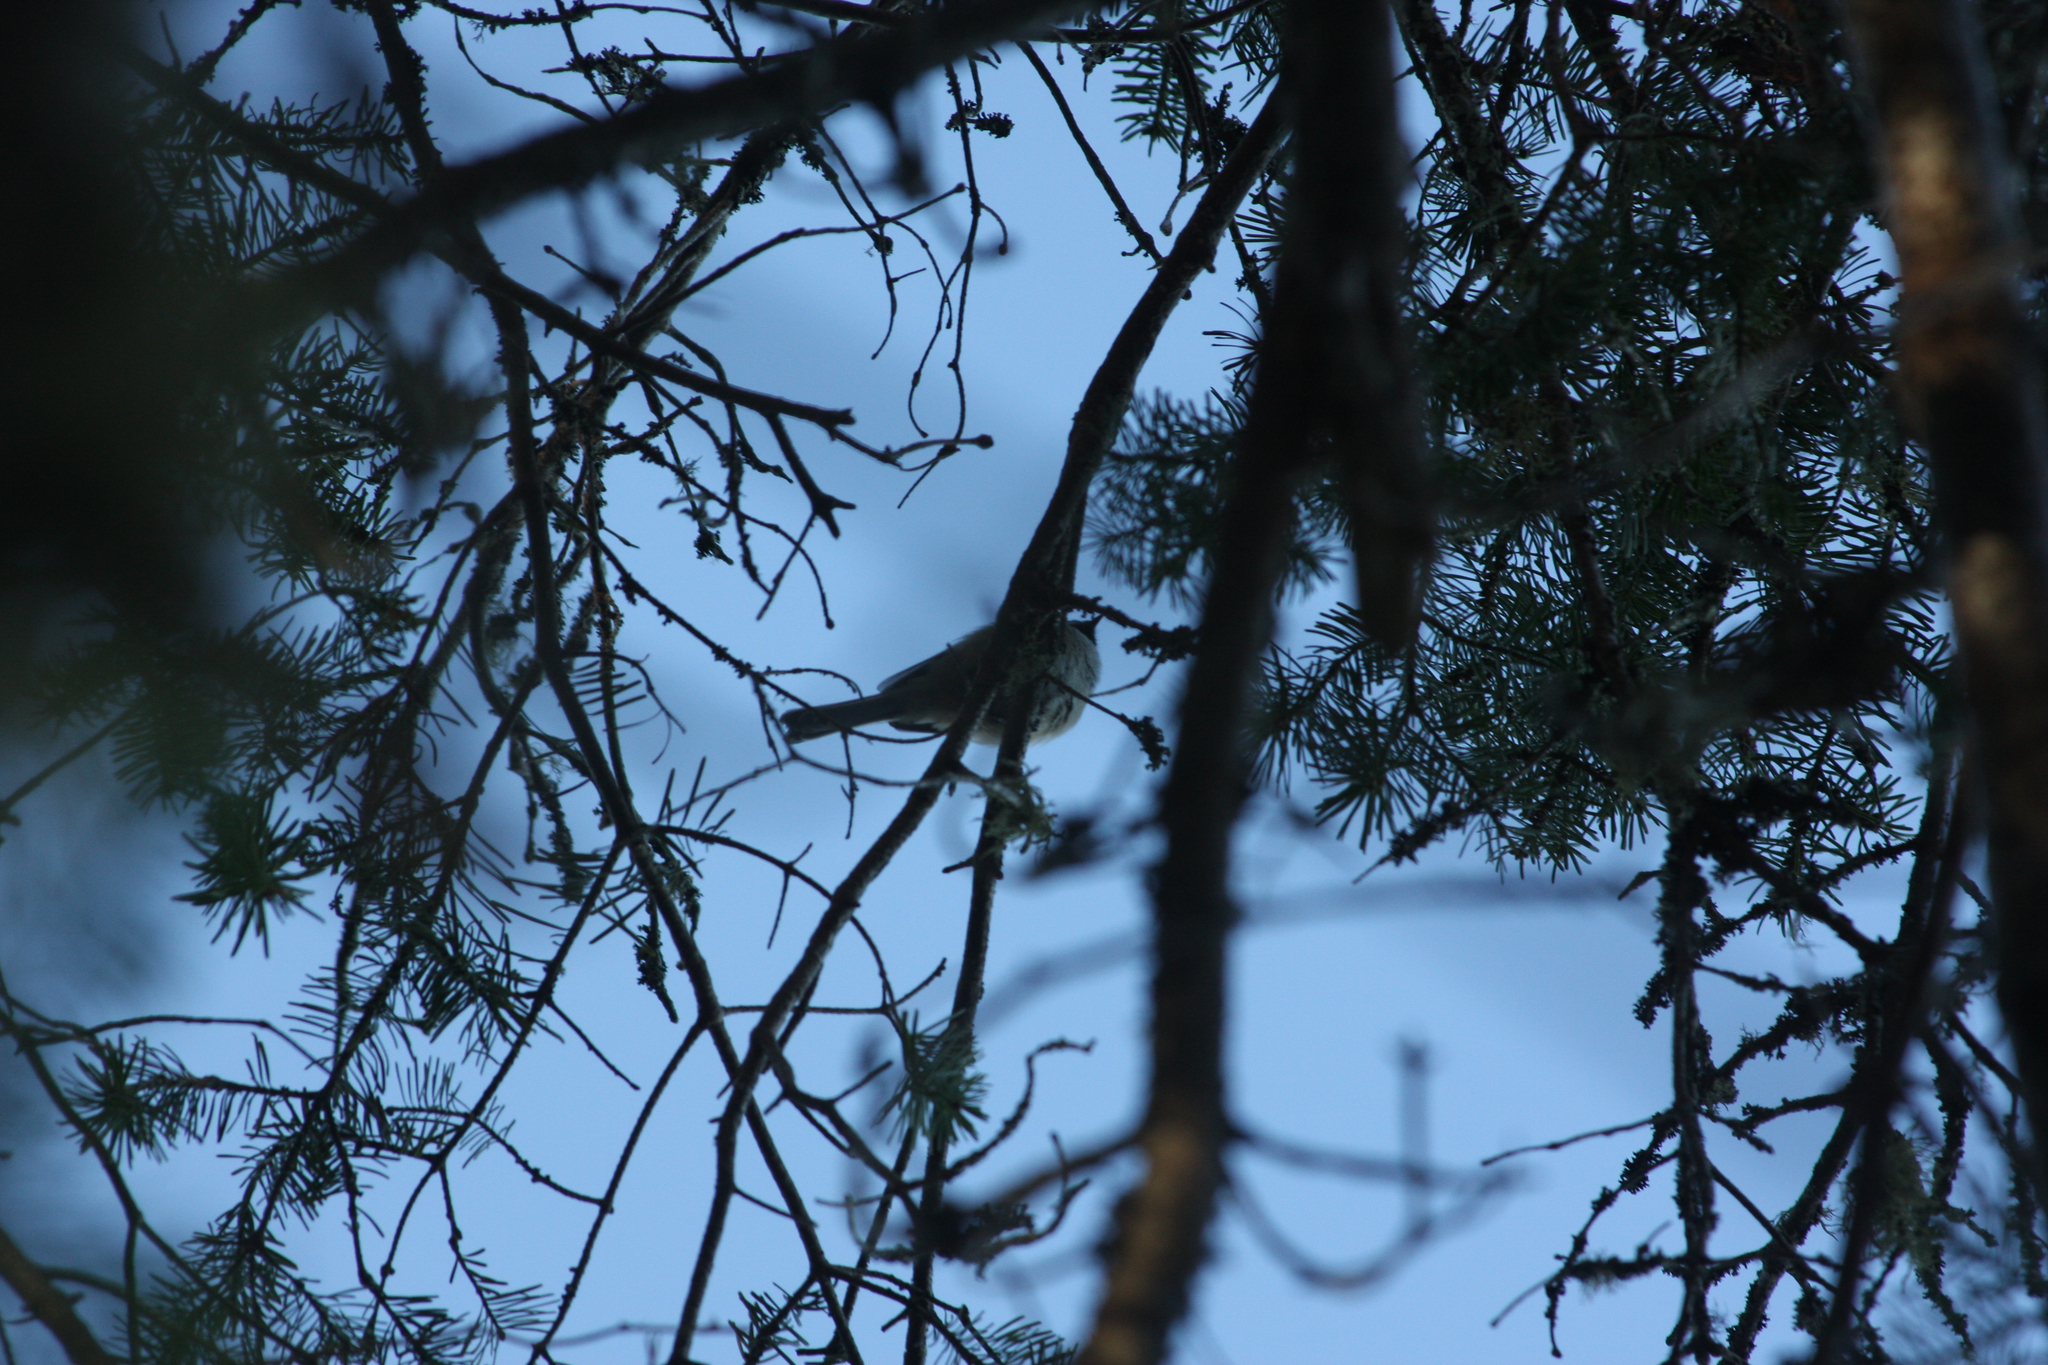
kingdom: Animalia
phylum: Chordata
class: Aves
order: Passeriformes
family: Paridae
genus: Poecile
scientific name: Poecile atricapillus
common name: Black-capped chickadee
